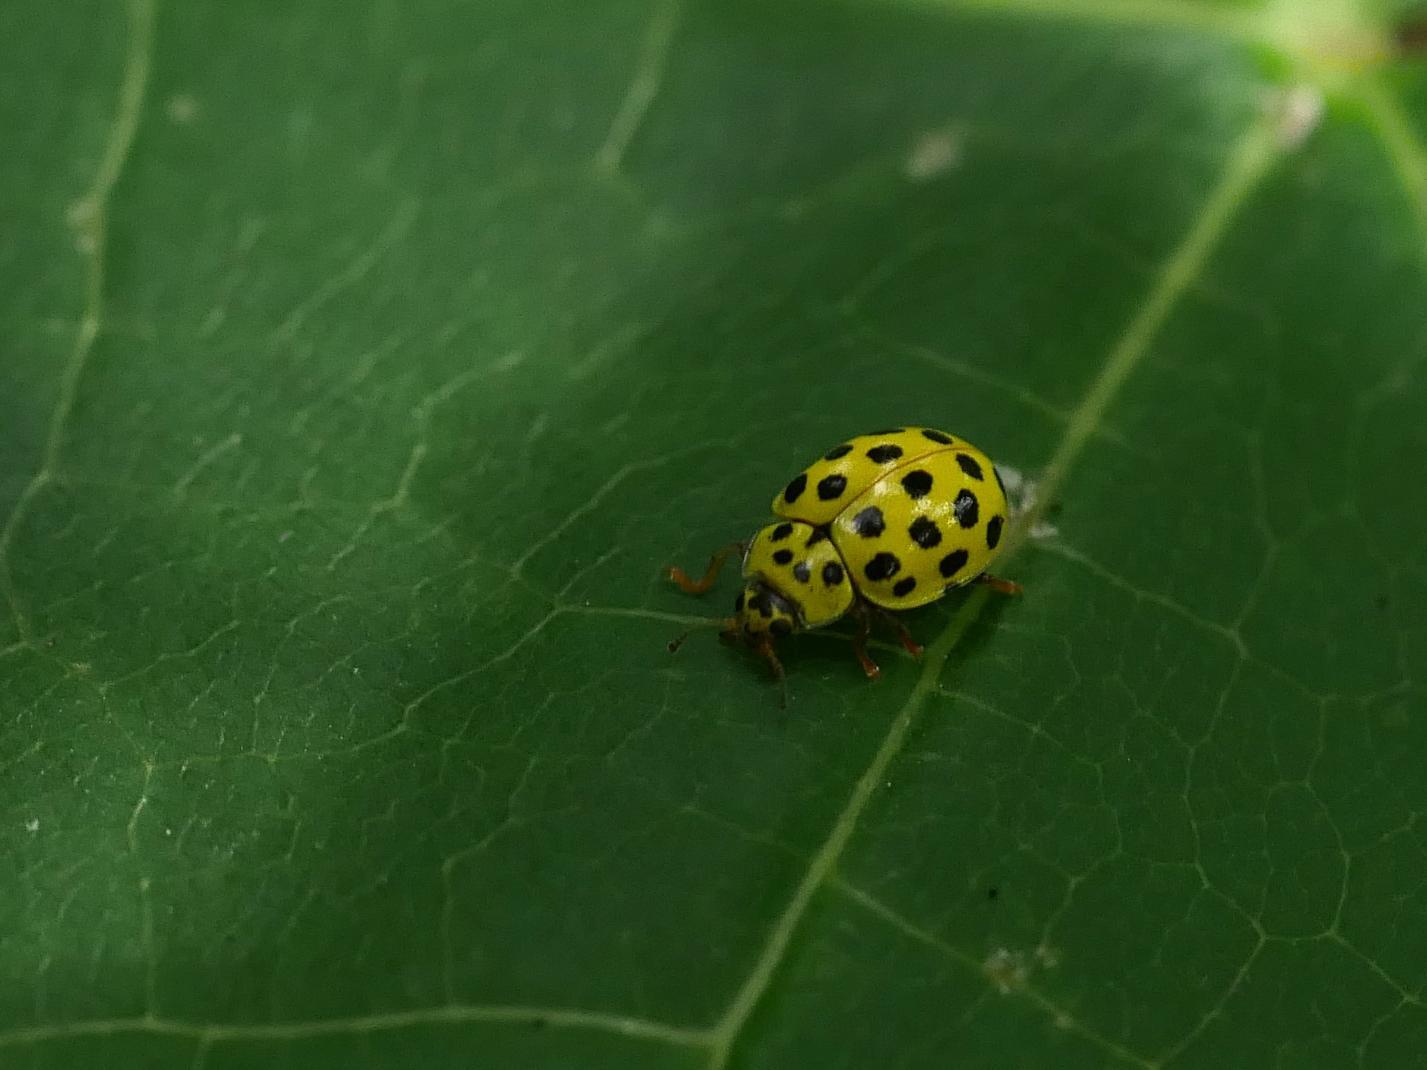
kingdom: Animalia
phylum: Arthropoda
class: Insecta
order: Coleoptera
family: Coccinellidae
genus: Psyllobora
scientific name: Psyllobora vigintiduopunctata
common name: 22-spot ladybird
